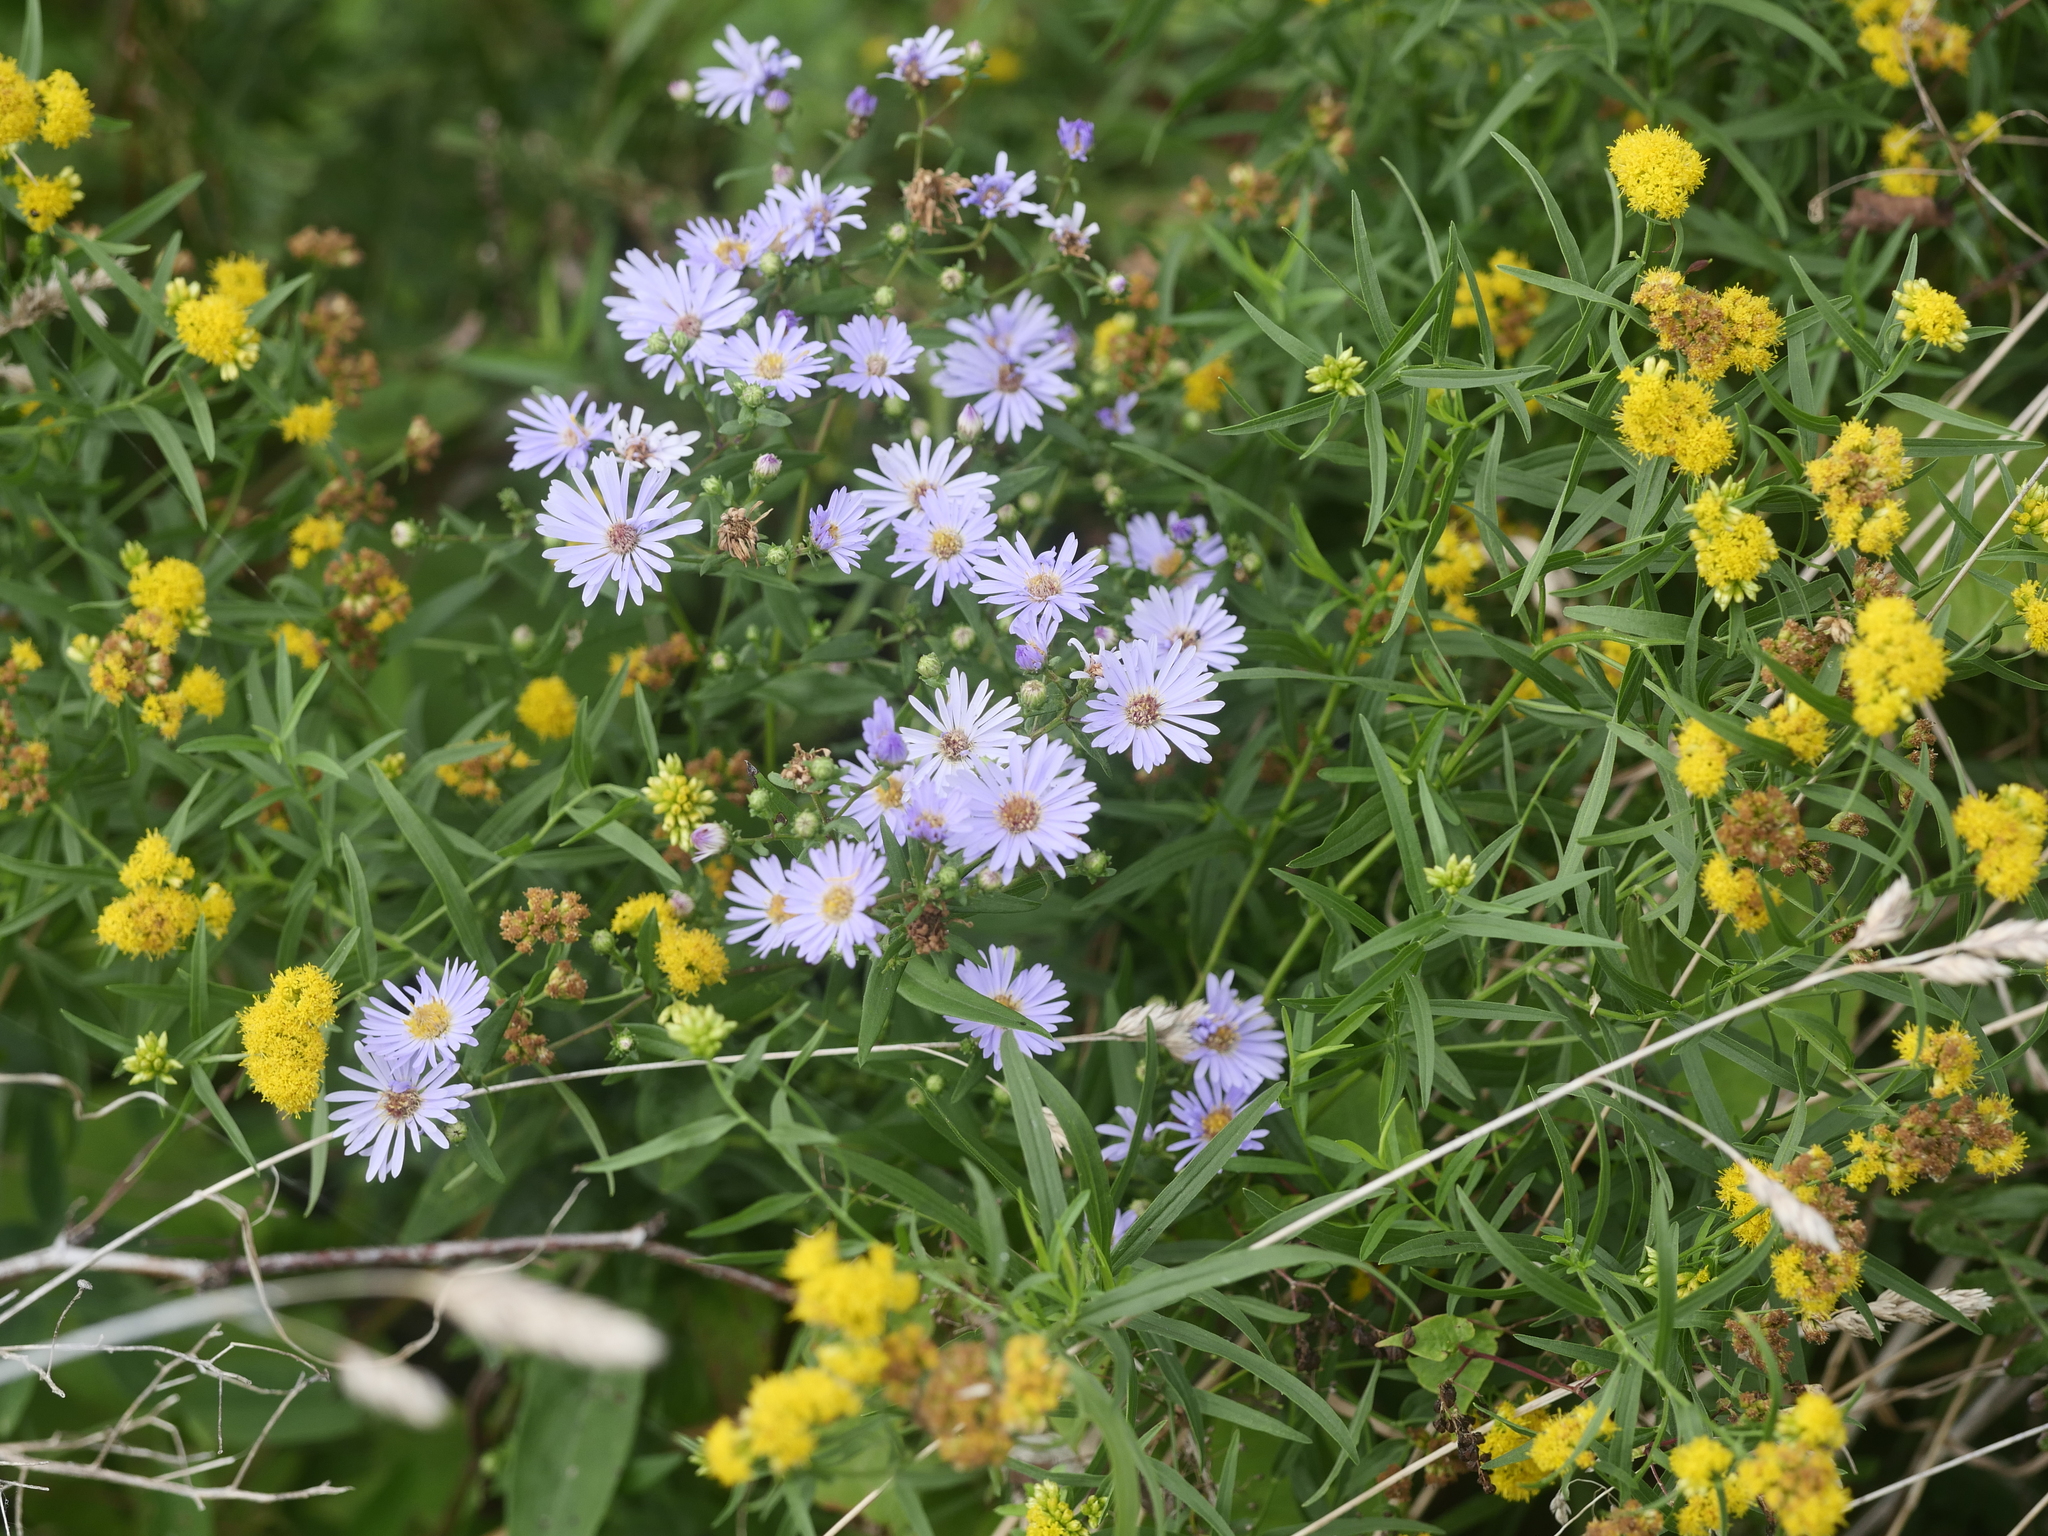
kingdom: Plantae
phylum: Tracheophyta
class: Magnoliopsida
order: Asterales
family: Asteraceae
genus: Symphyotrichum
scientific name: Symphyotrichum novi-belgii
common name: Michaelmas daisy
